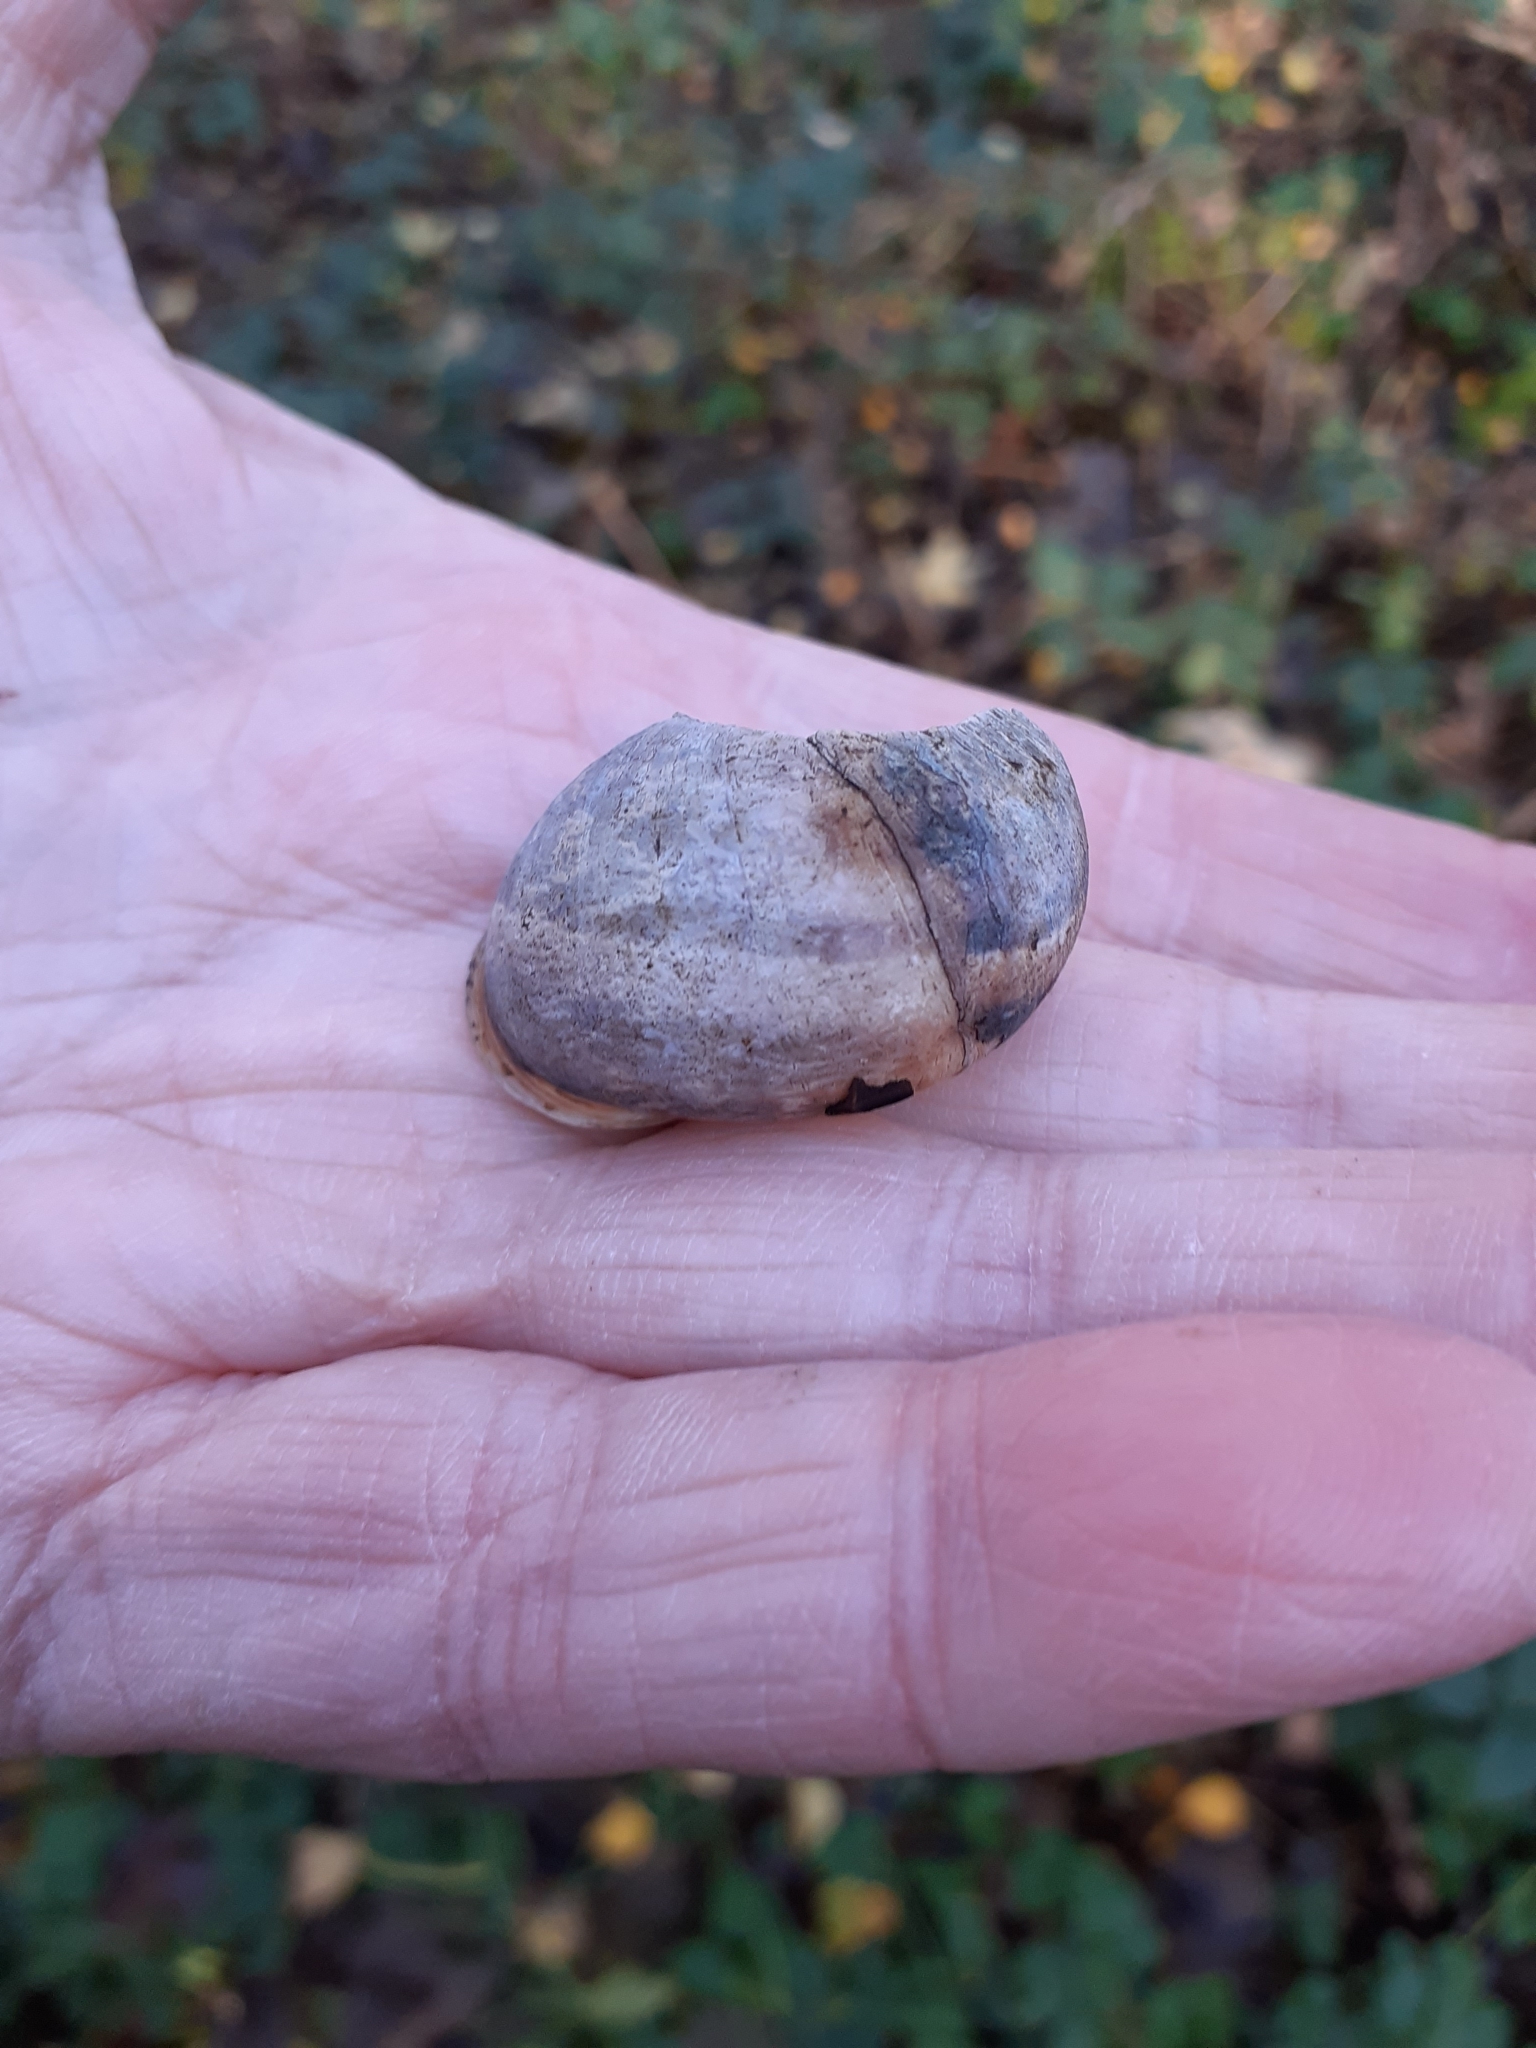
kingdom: Animalia
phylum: Mollusca
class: Gastropoda
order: Stylommatophora
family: Helicidae
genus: Cornu
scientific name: Cornu aspersum
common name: Brown garden snail
